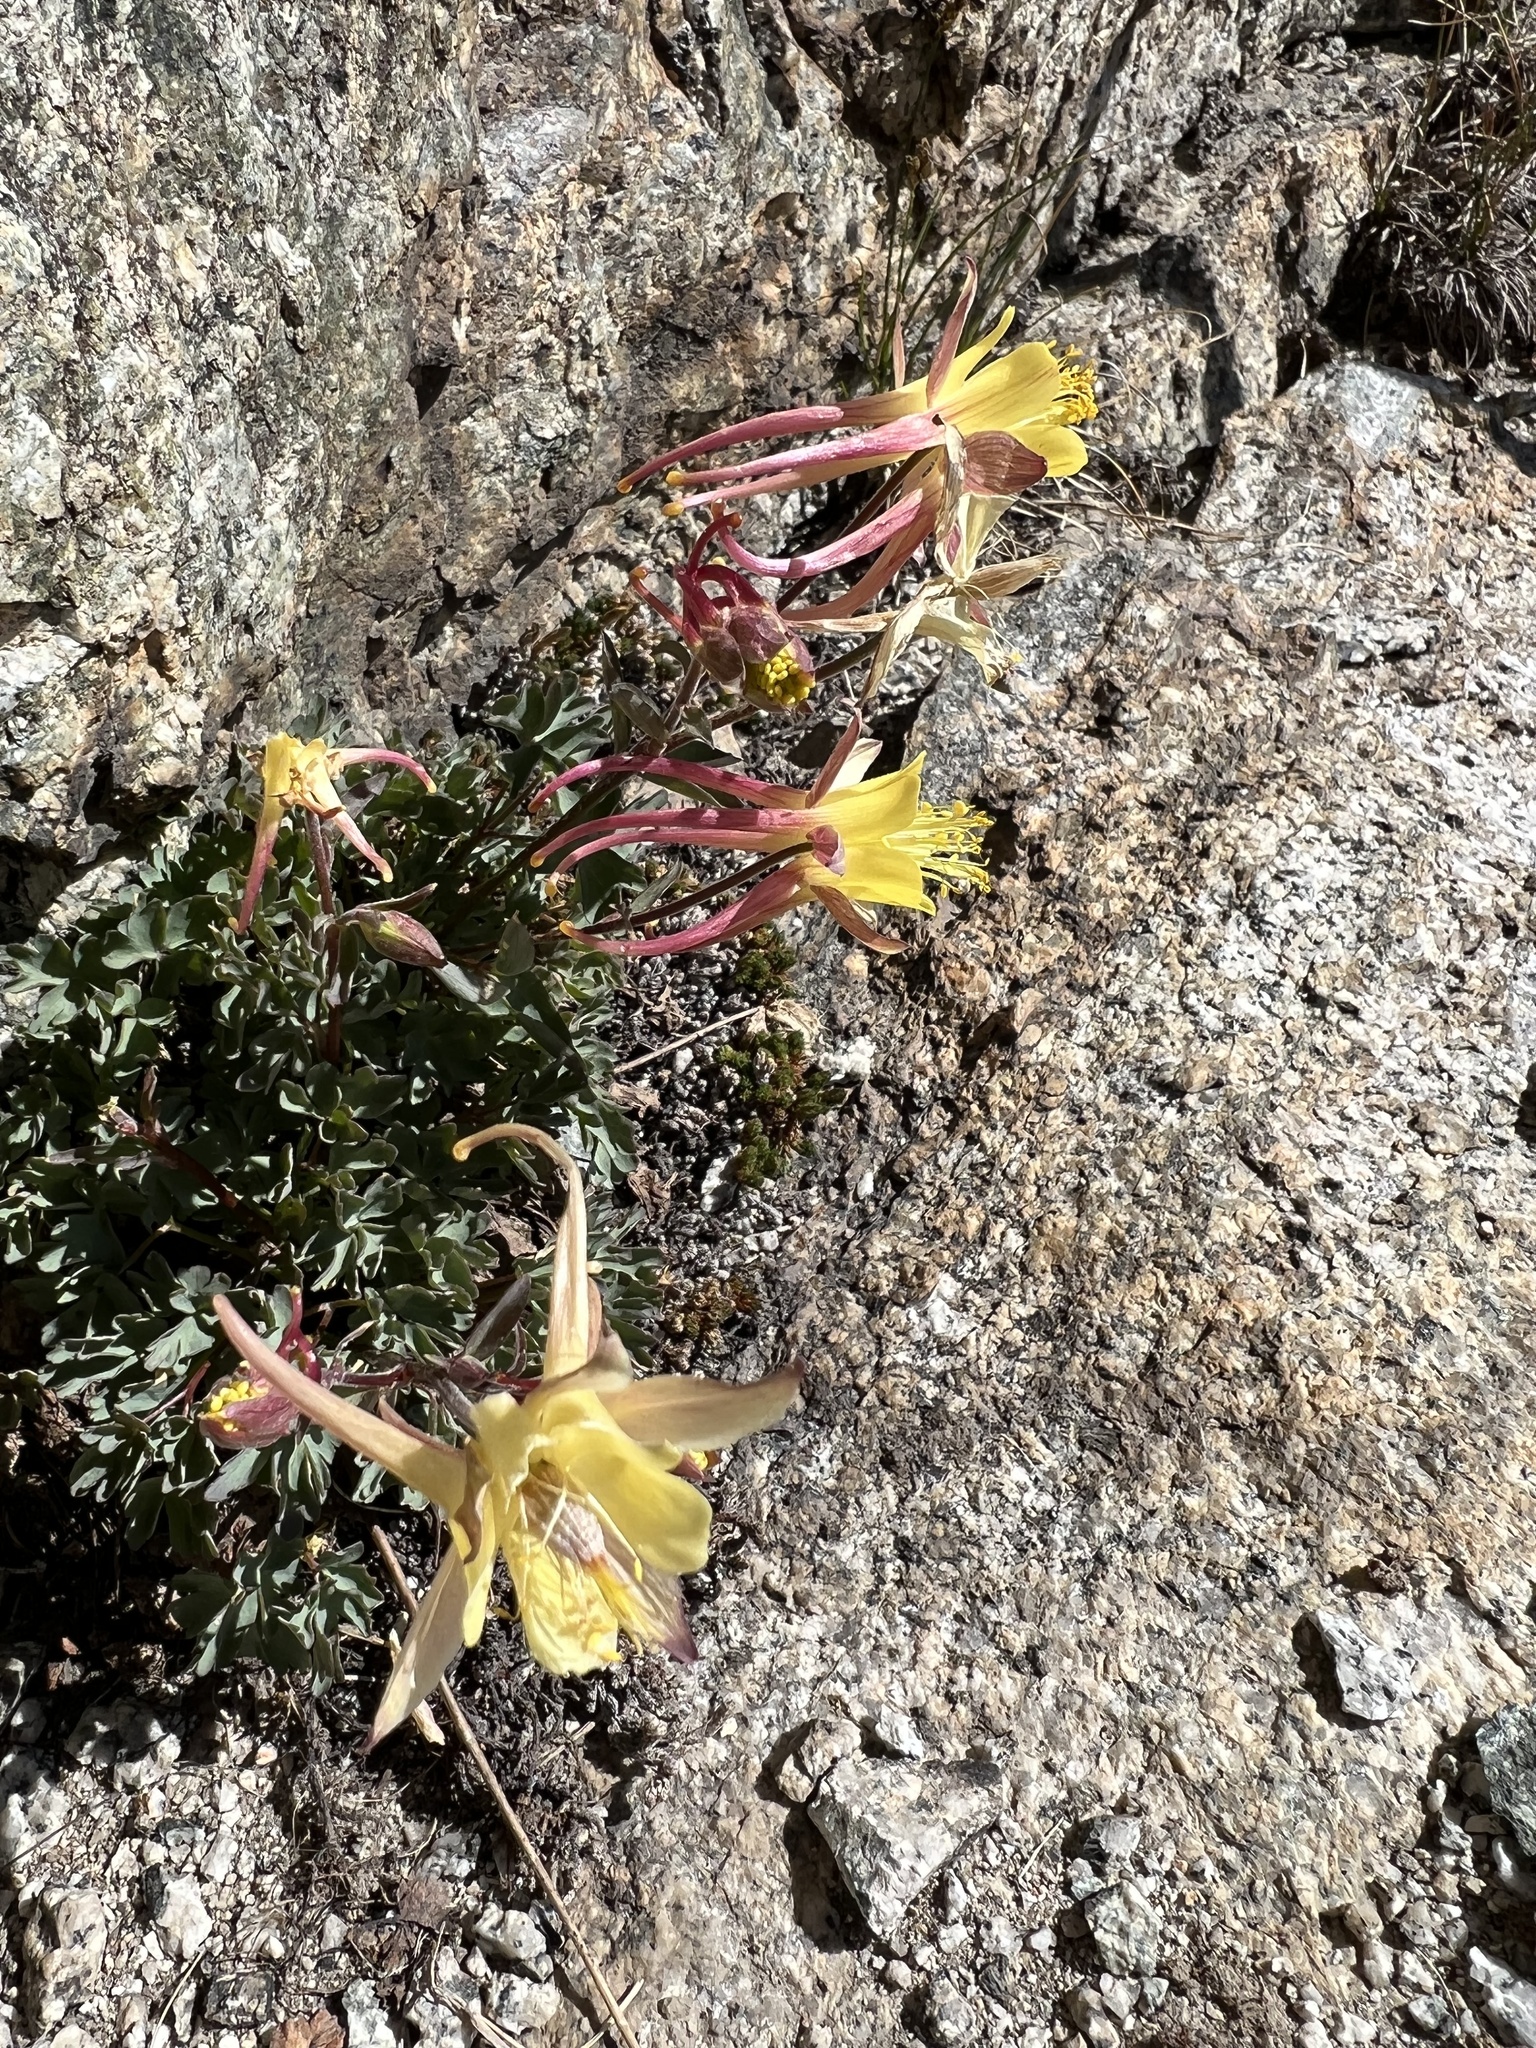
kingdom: Plantae
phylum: Tracheophyta
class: Magnoliopsida
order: Ranunculales
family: Ranunculaceae
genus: Aquilegia
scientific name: Aquilegia pubescens
